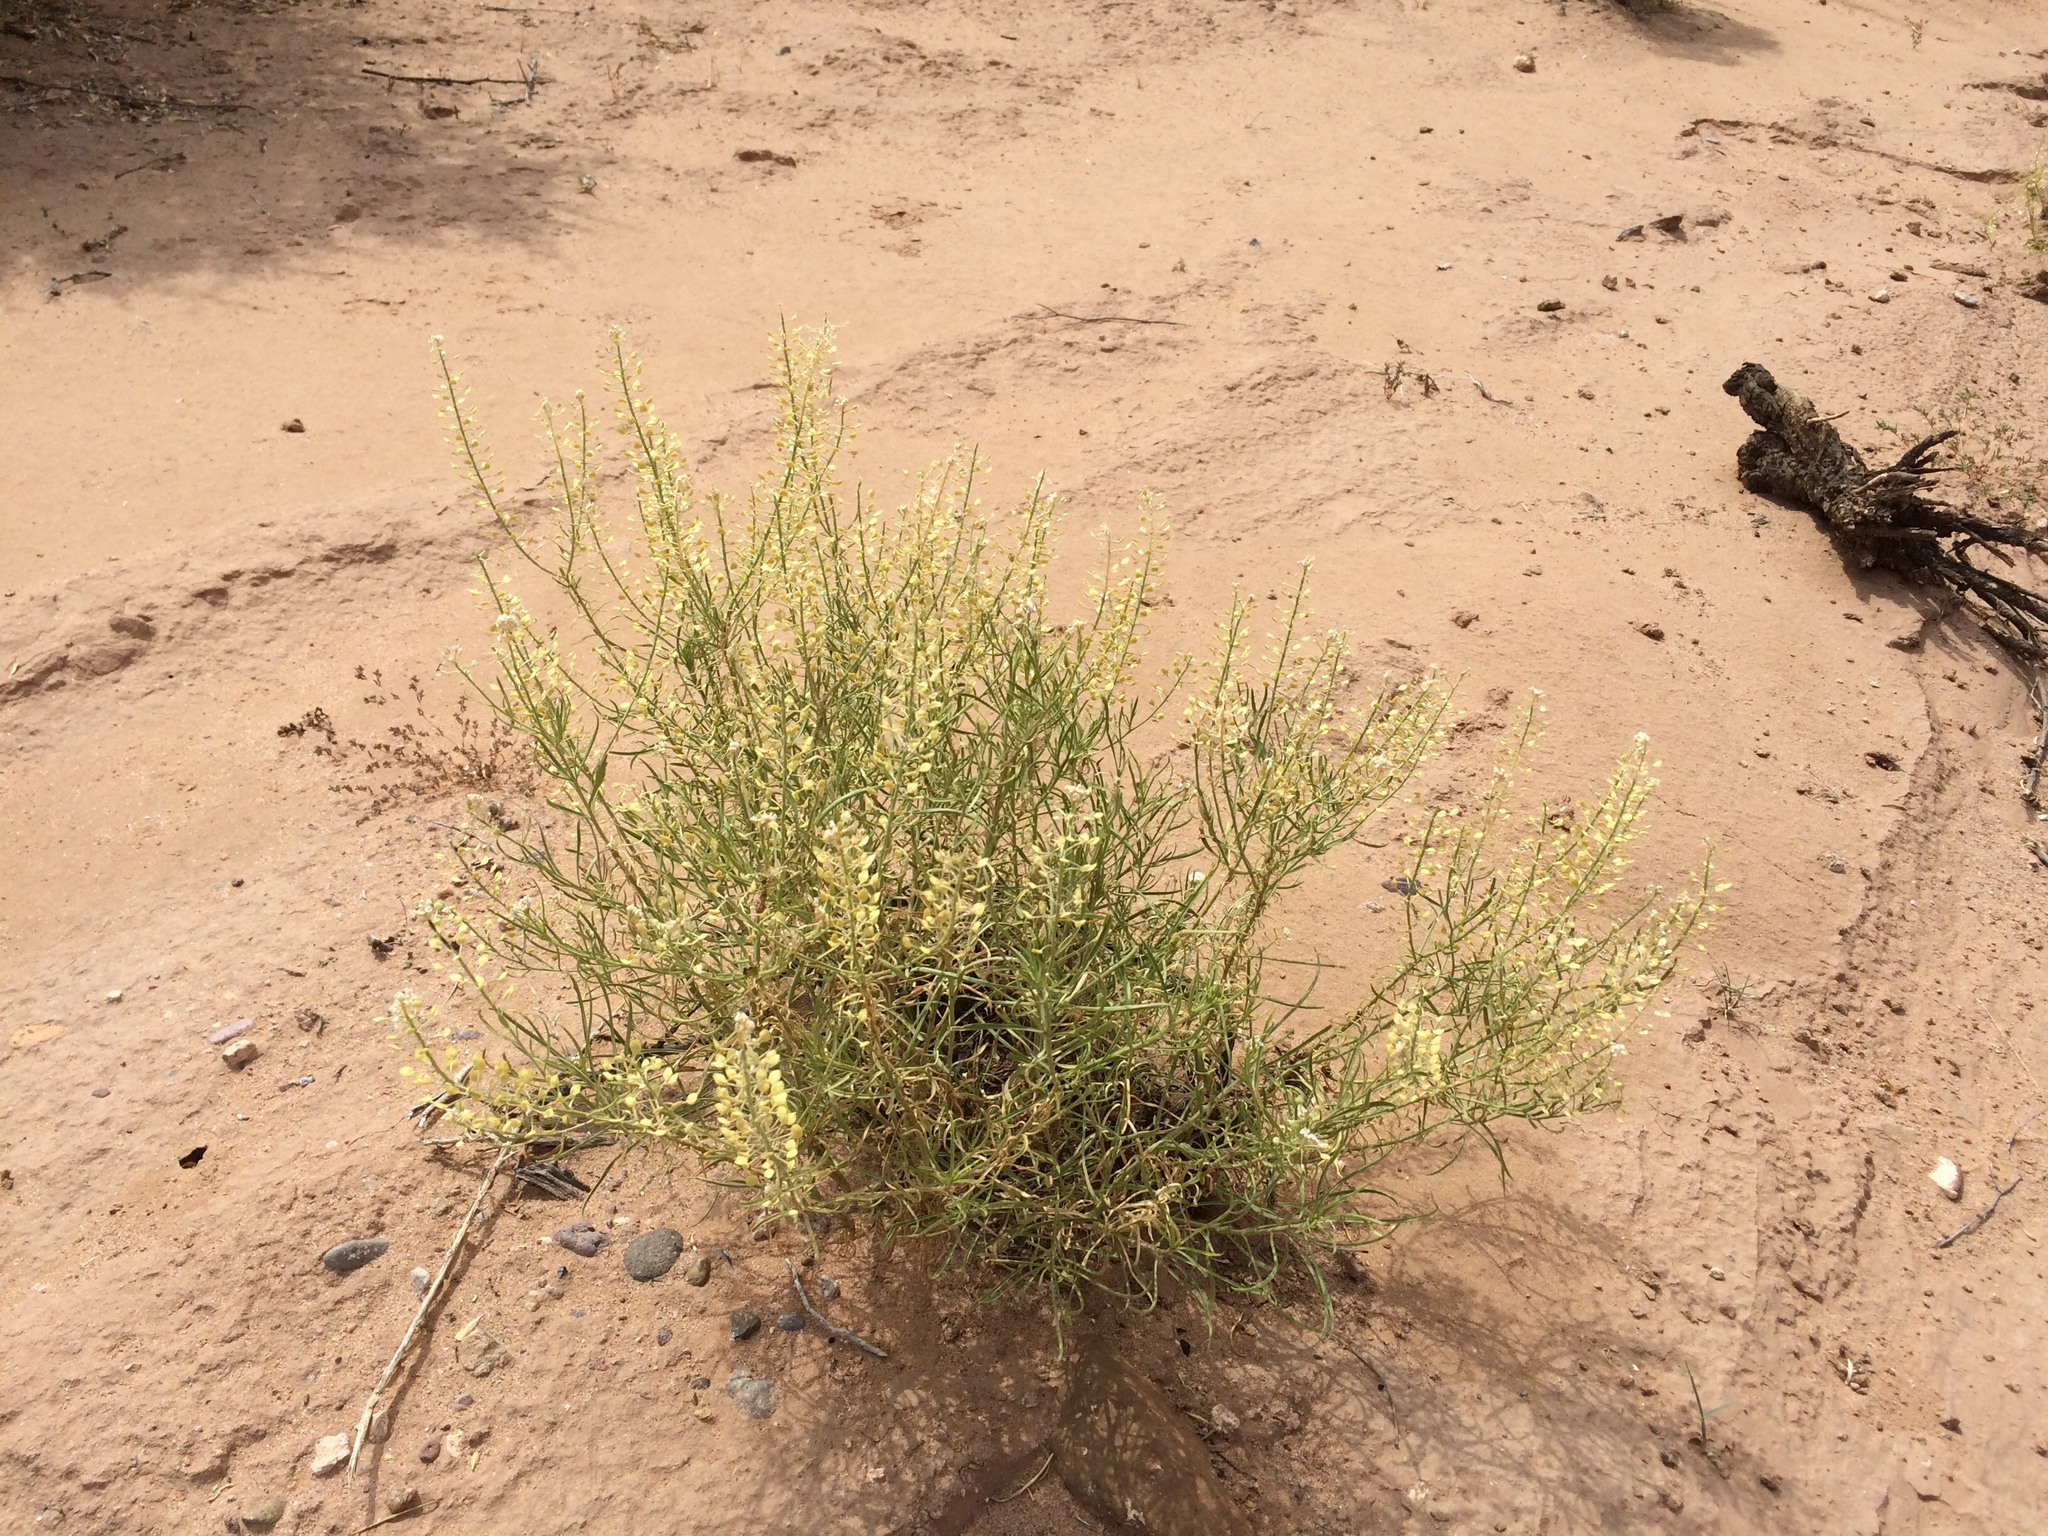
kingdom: Plantae
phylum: Tracheophyta
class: Magnoliopsida
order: Brassicales
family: Brassicaceae
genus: Lepidium
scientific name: Lepidium alyssoides
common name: Mesa pepperweed
